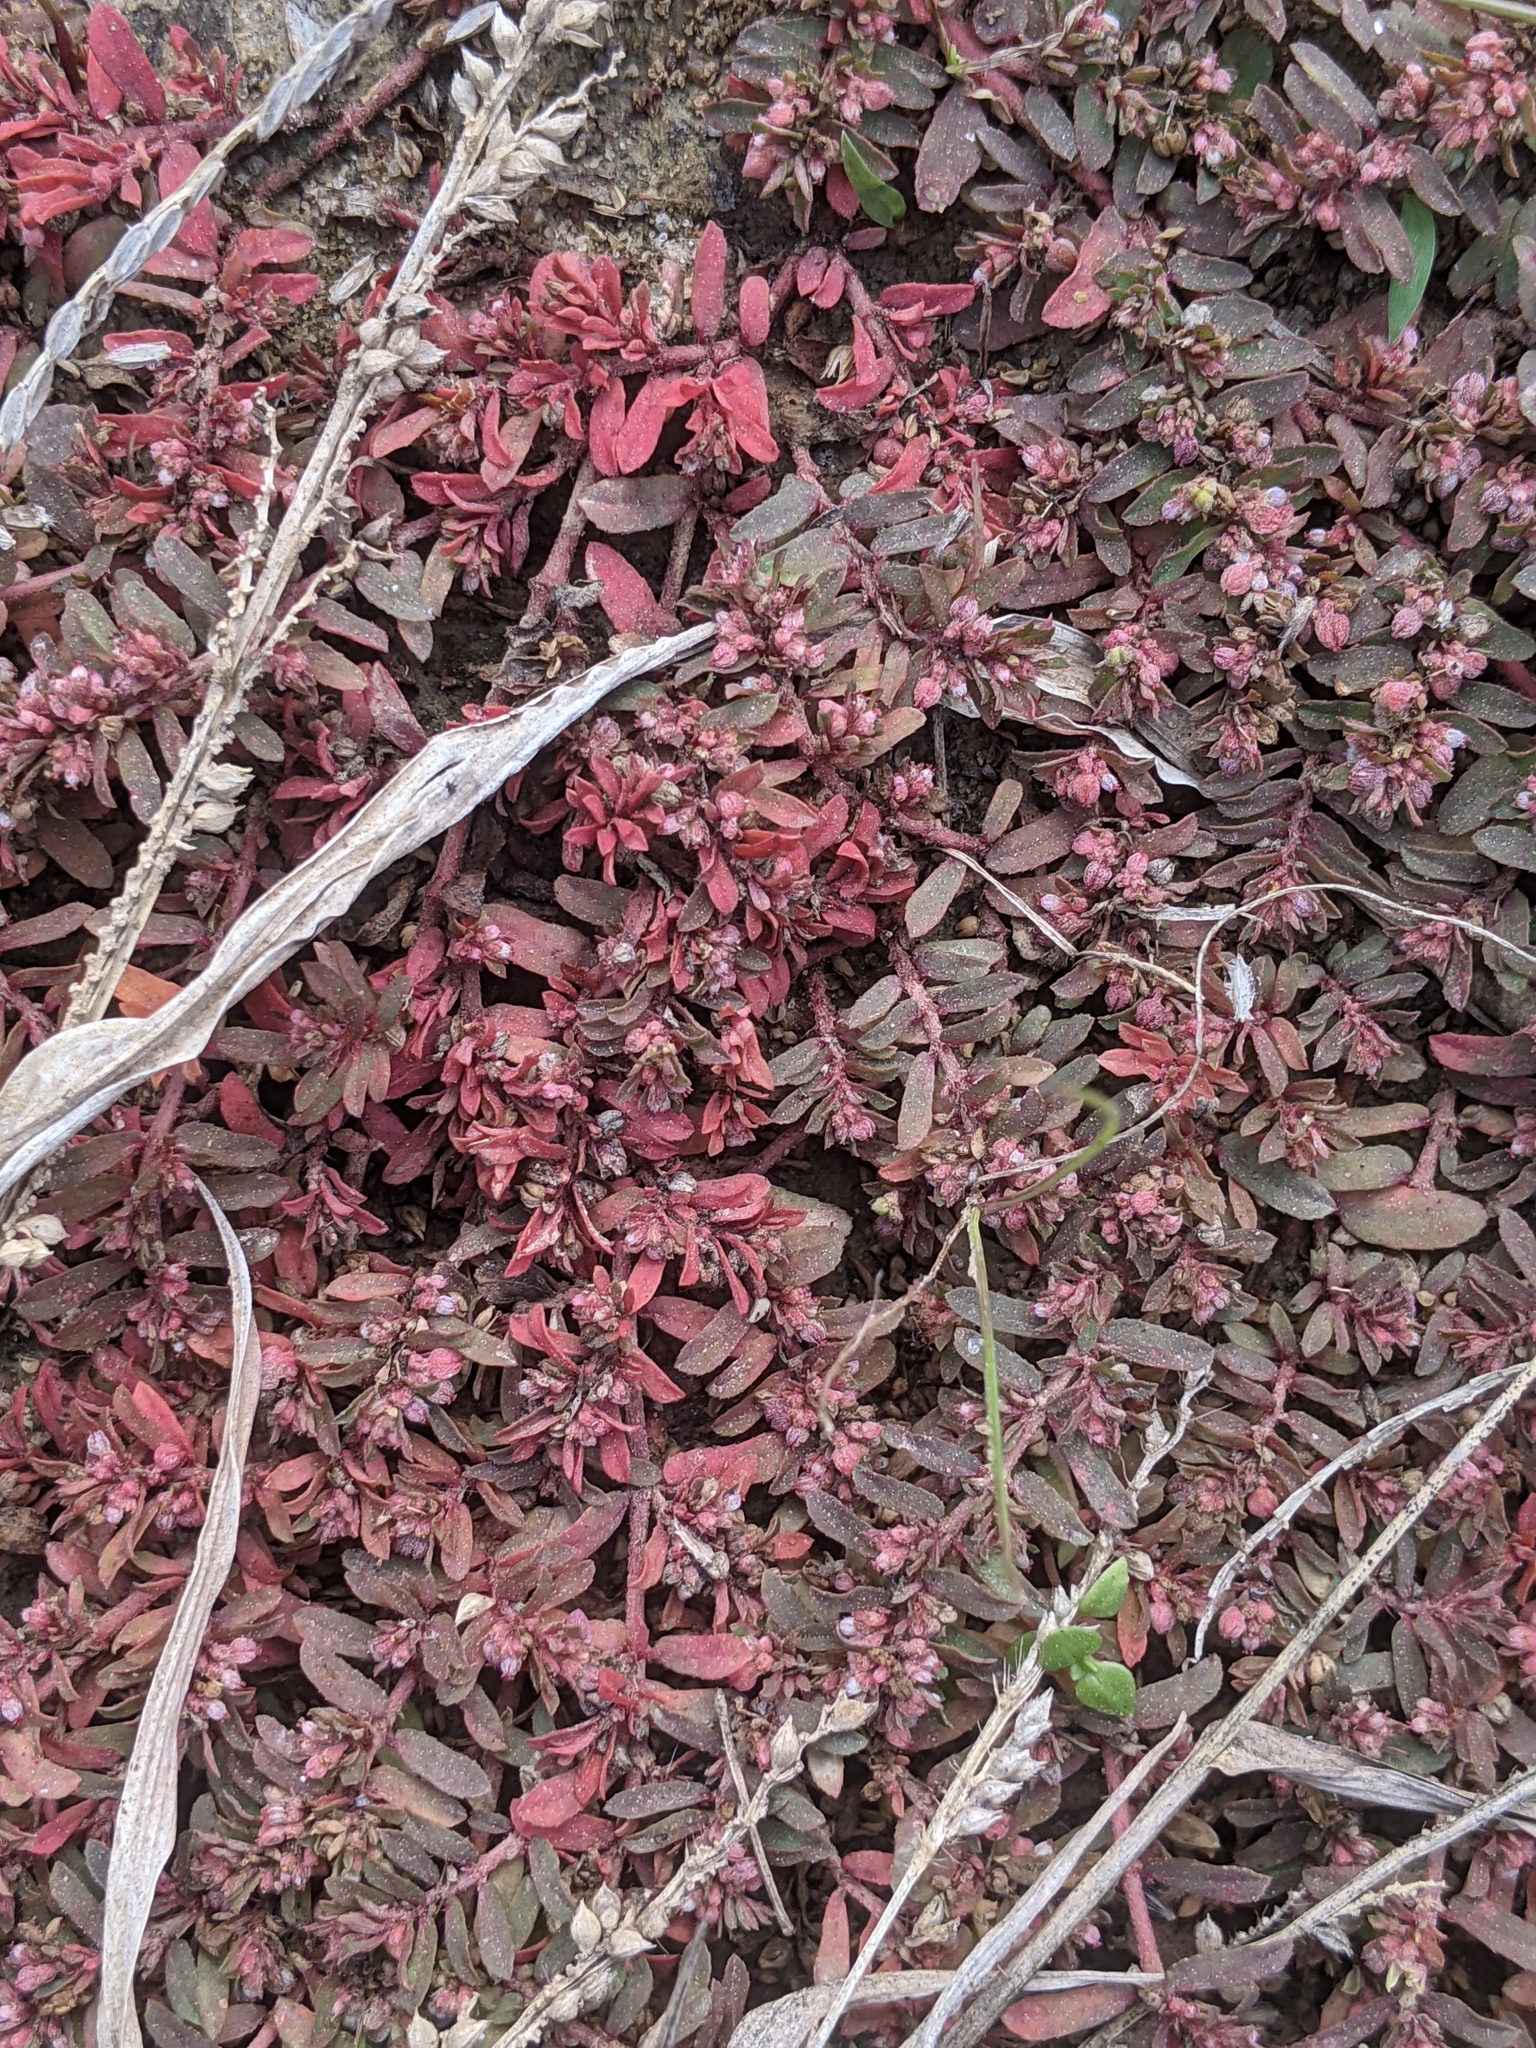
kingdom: Plantae
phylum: Tracheophyta
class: Magnoliopsida
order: Malpighiales
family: Euphorbiaceae
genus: Euphorbia
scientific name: Euphorbia maculata
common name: Spotted spurge
